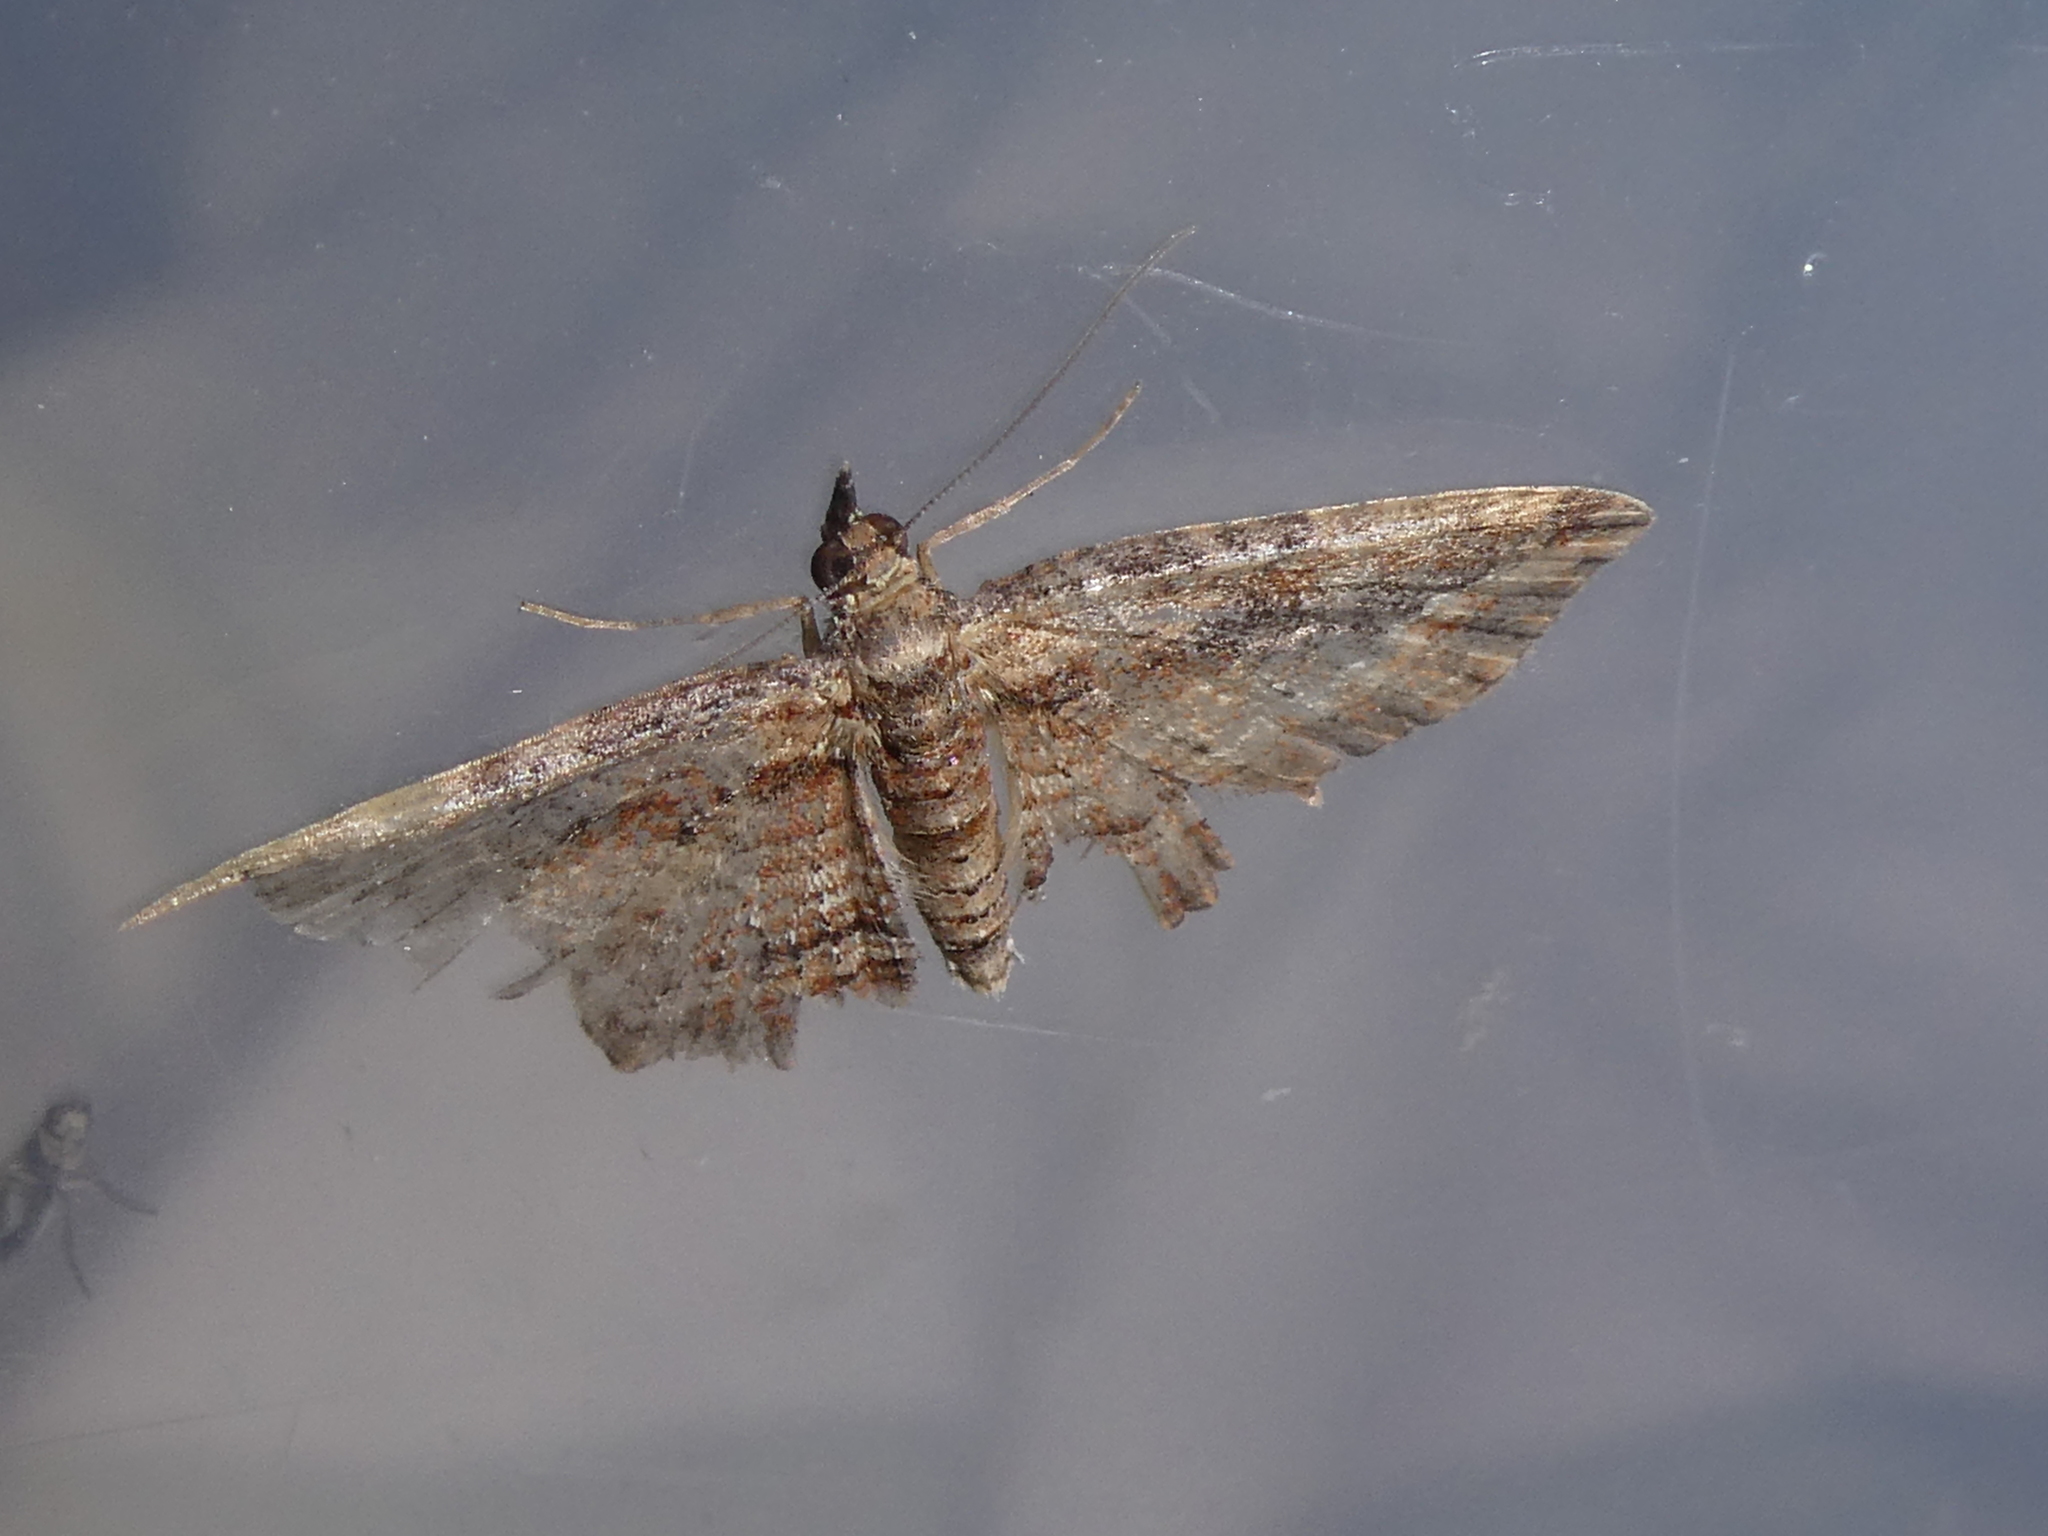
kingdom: Animalia
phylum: Arthropoda
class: Insecta
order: Lepidoptera
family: Geometridae
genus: Chloroclystis
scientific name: Chloroclystis filata
